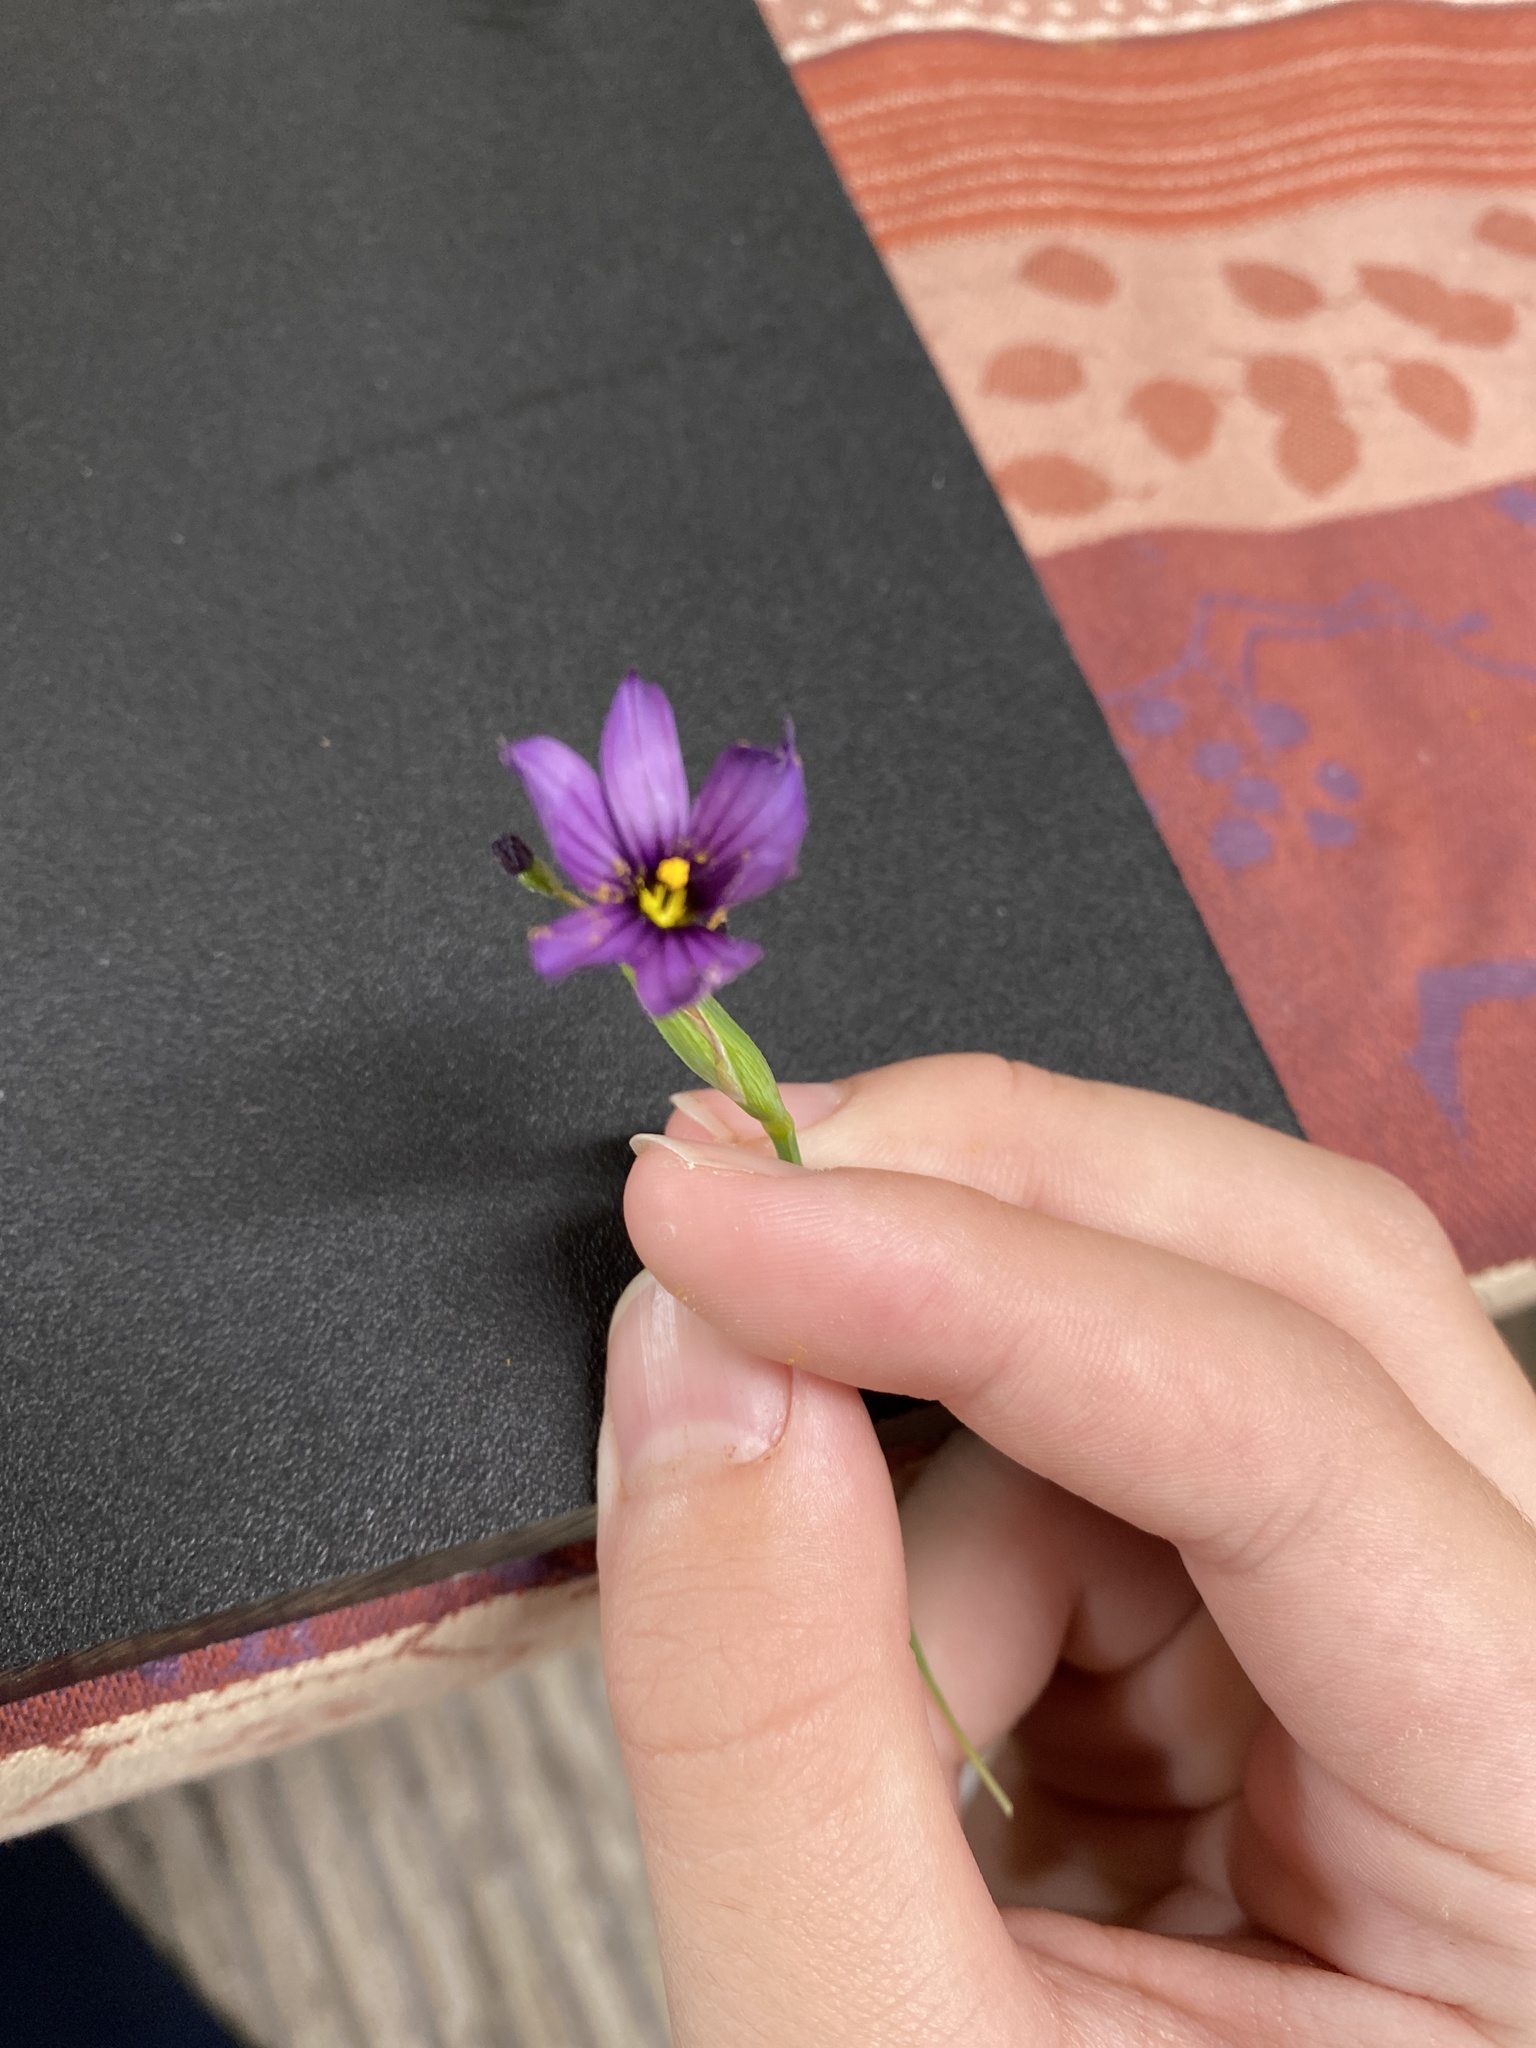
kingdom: Plantae
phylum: Tracheophyta
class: Liliopsida
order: Asparagales
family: Iridaceae
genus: Sisyrinchium
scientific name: Sisyrinchium bellum
